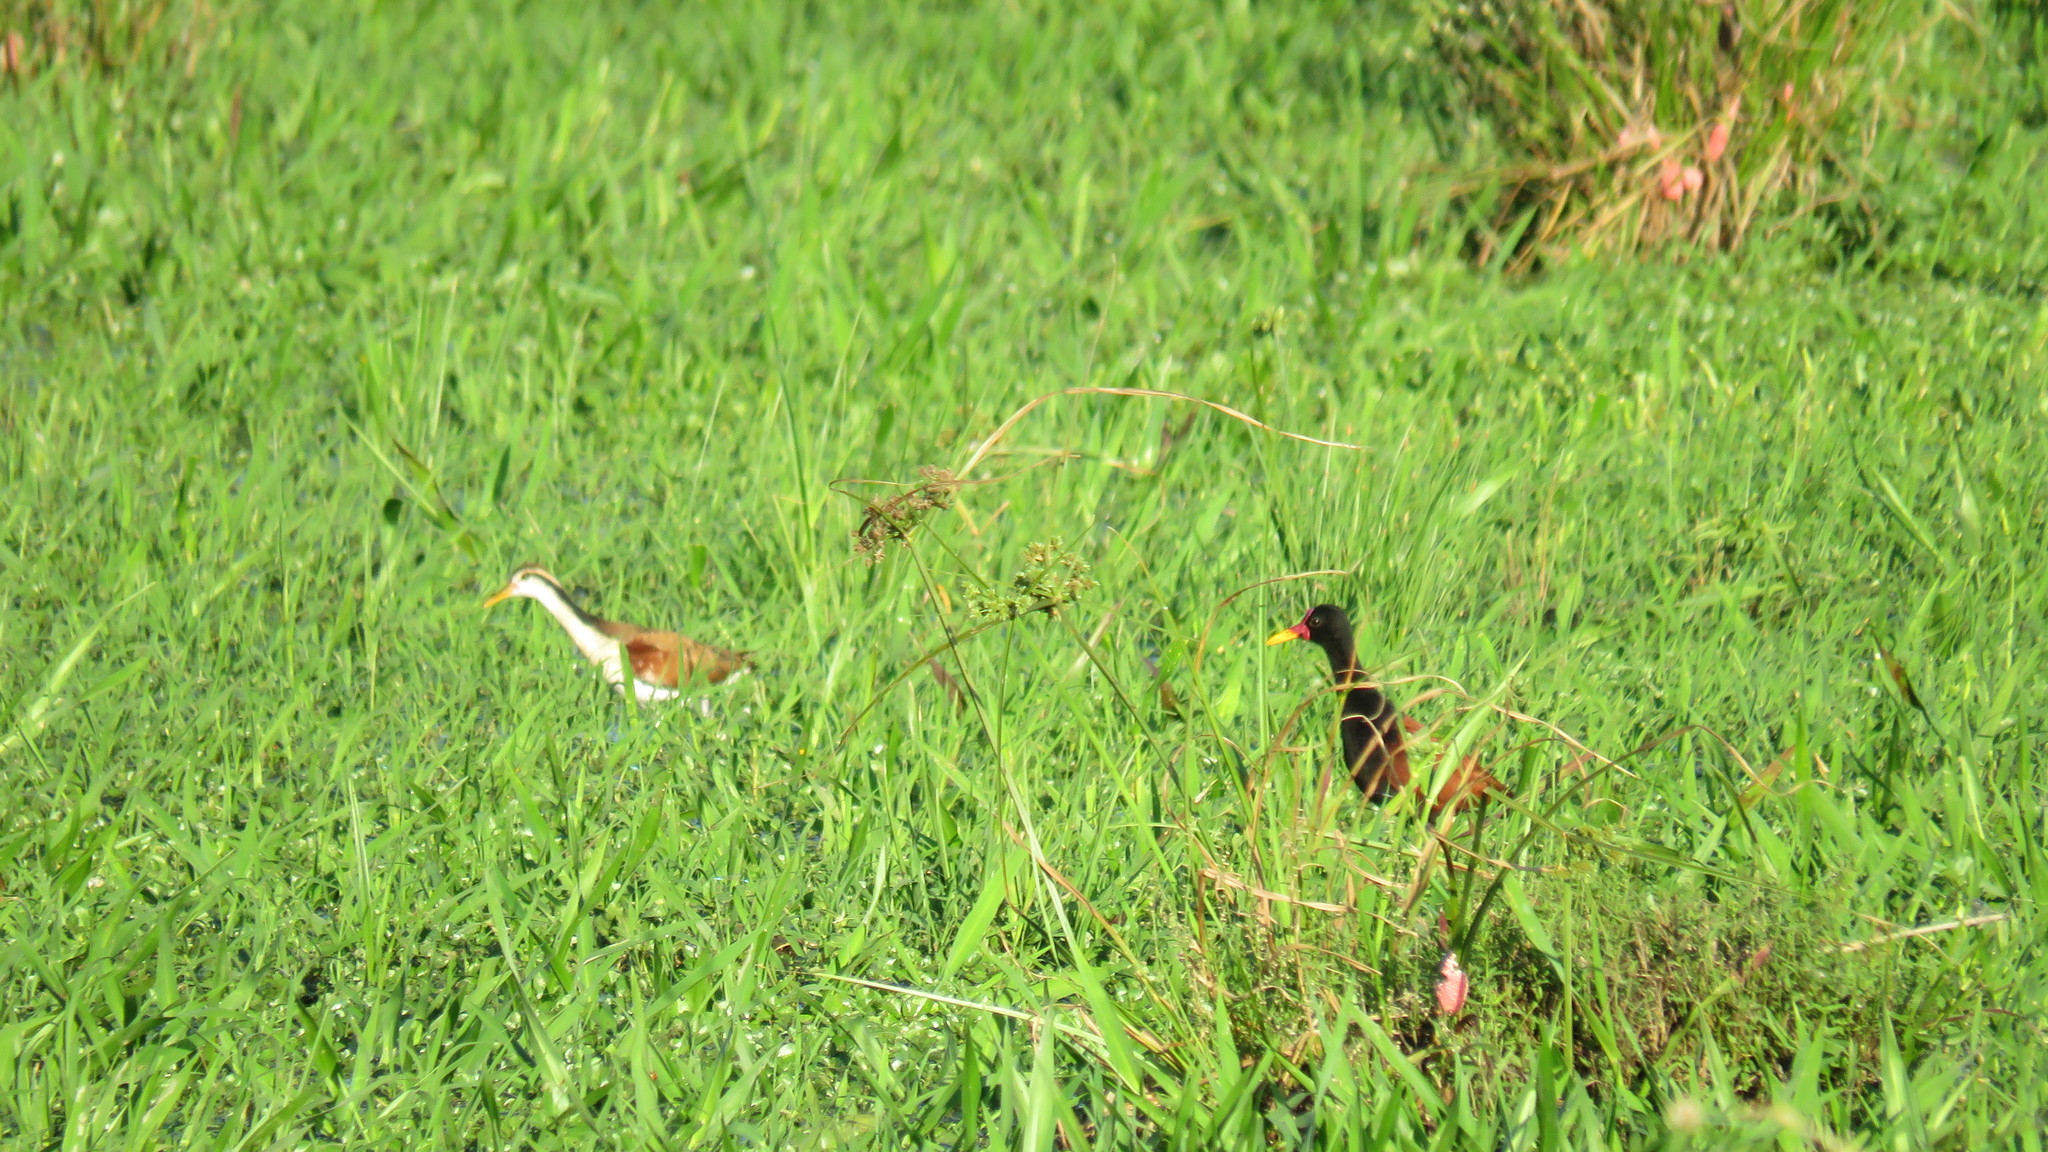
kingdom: Animalia
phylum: Chordata
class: Aves
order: Charadriiformes
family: Jacanidae
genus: Jacana
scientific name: Jacana jacana
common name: Wattled jacana
